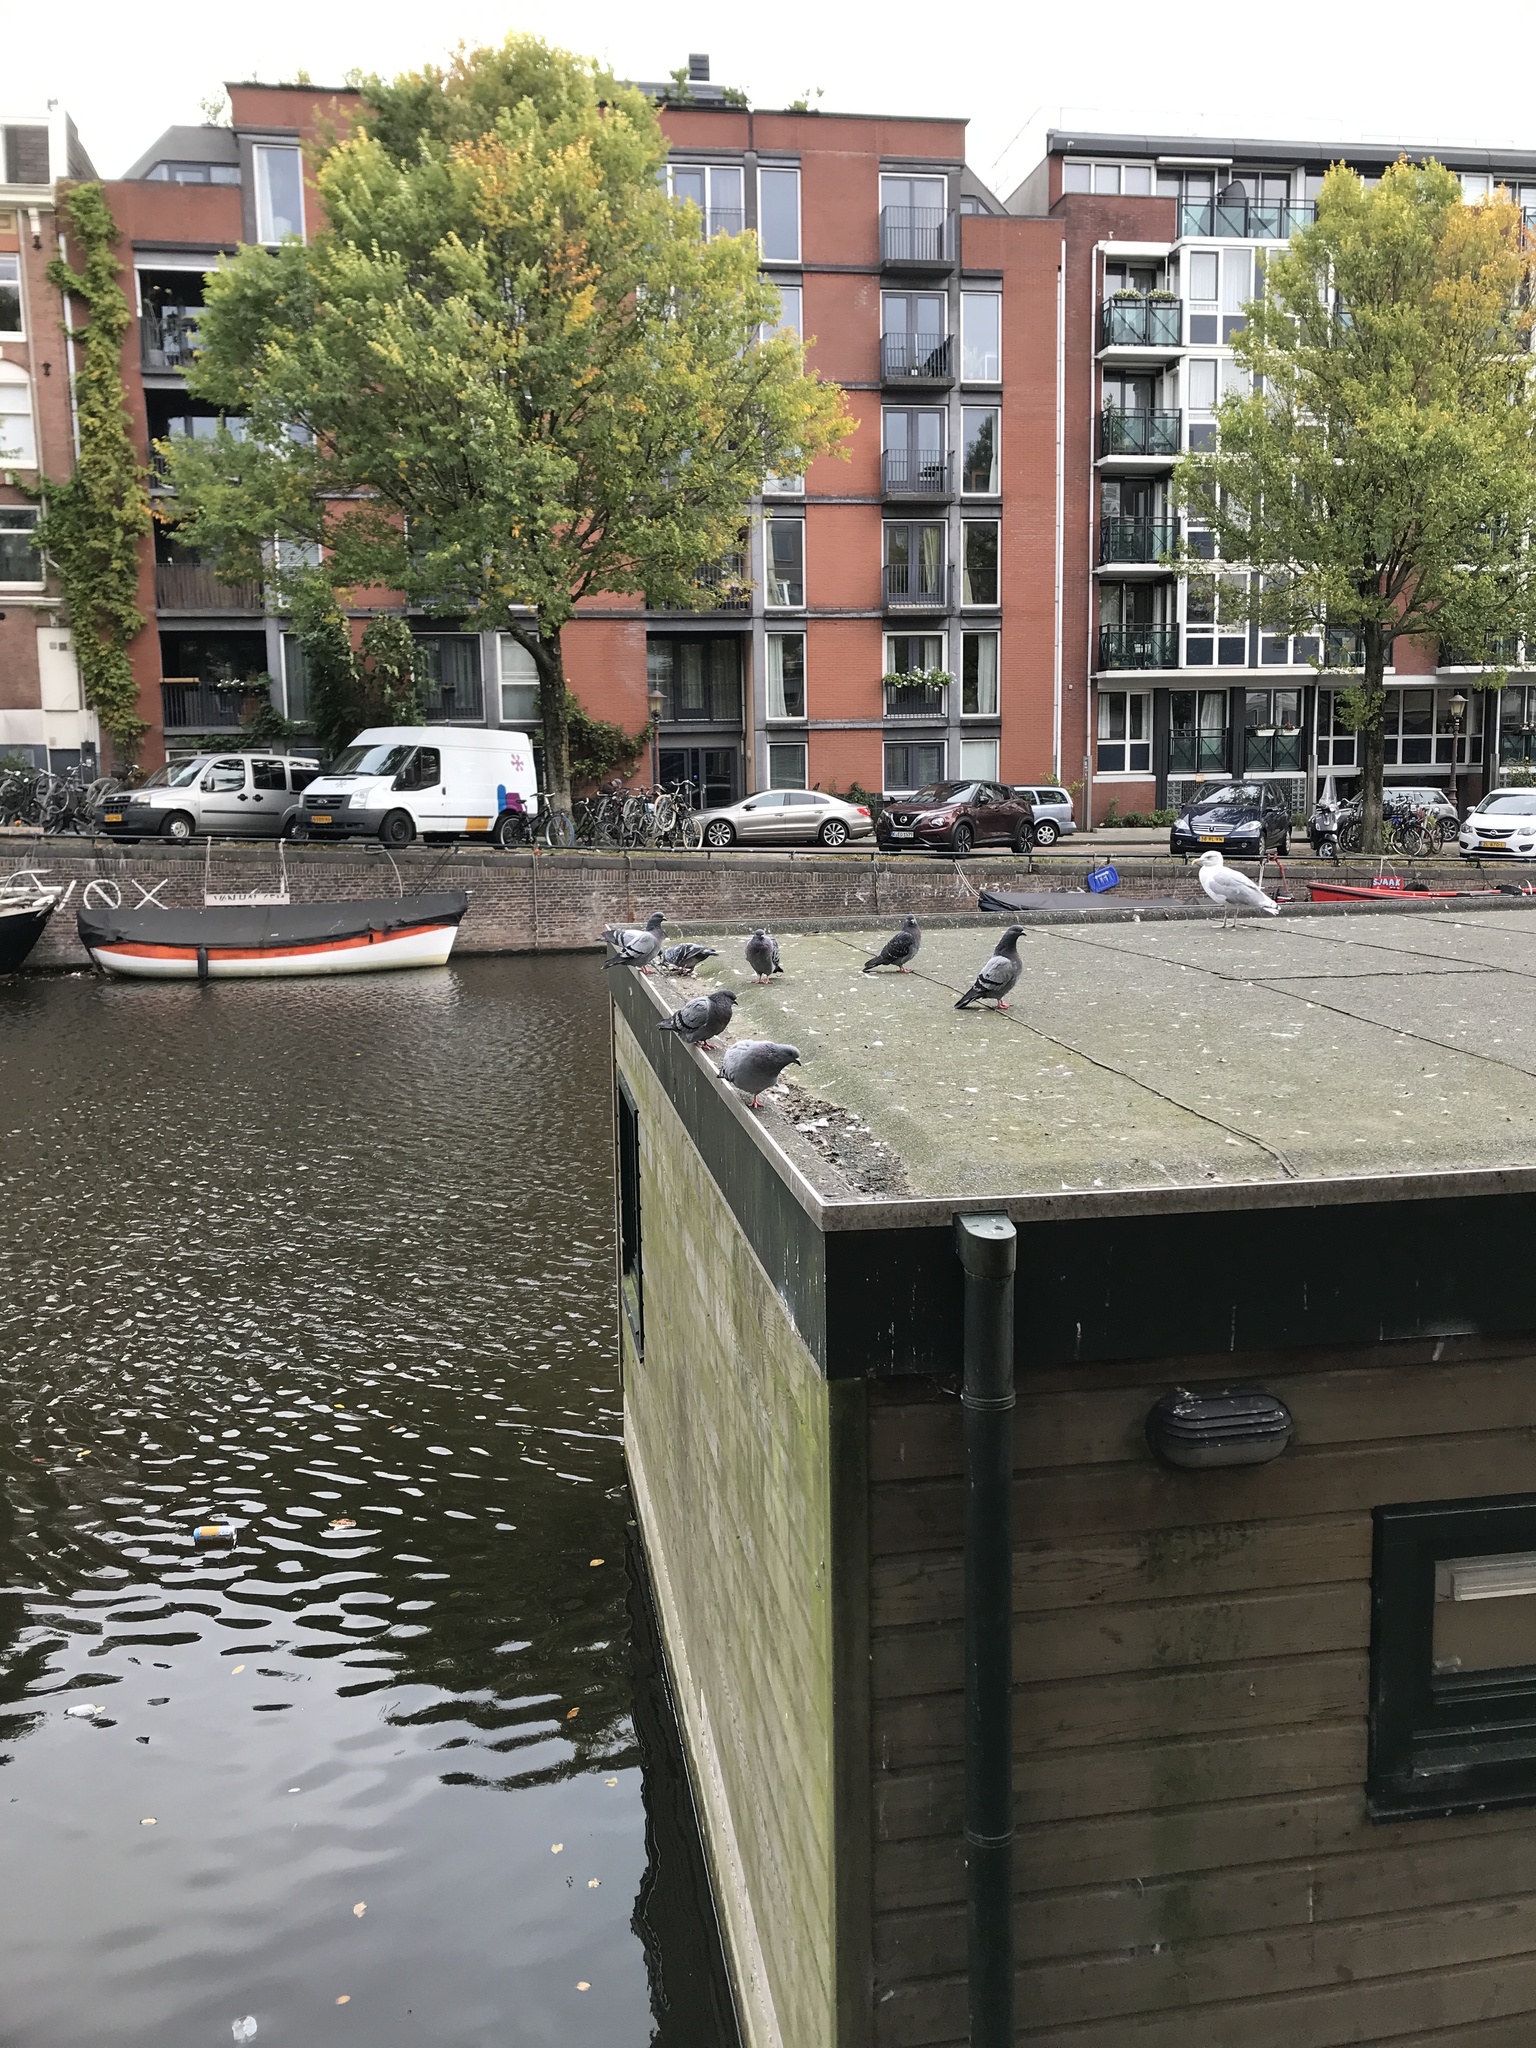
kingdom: Animalia
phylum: Chordata
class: Aves
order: Columbiformes
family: Columbidae
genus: Columba
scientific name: Columba livia
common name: Rock pigeon
